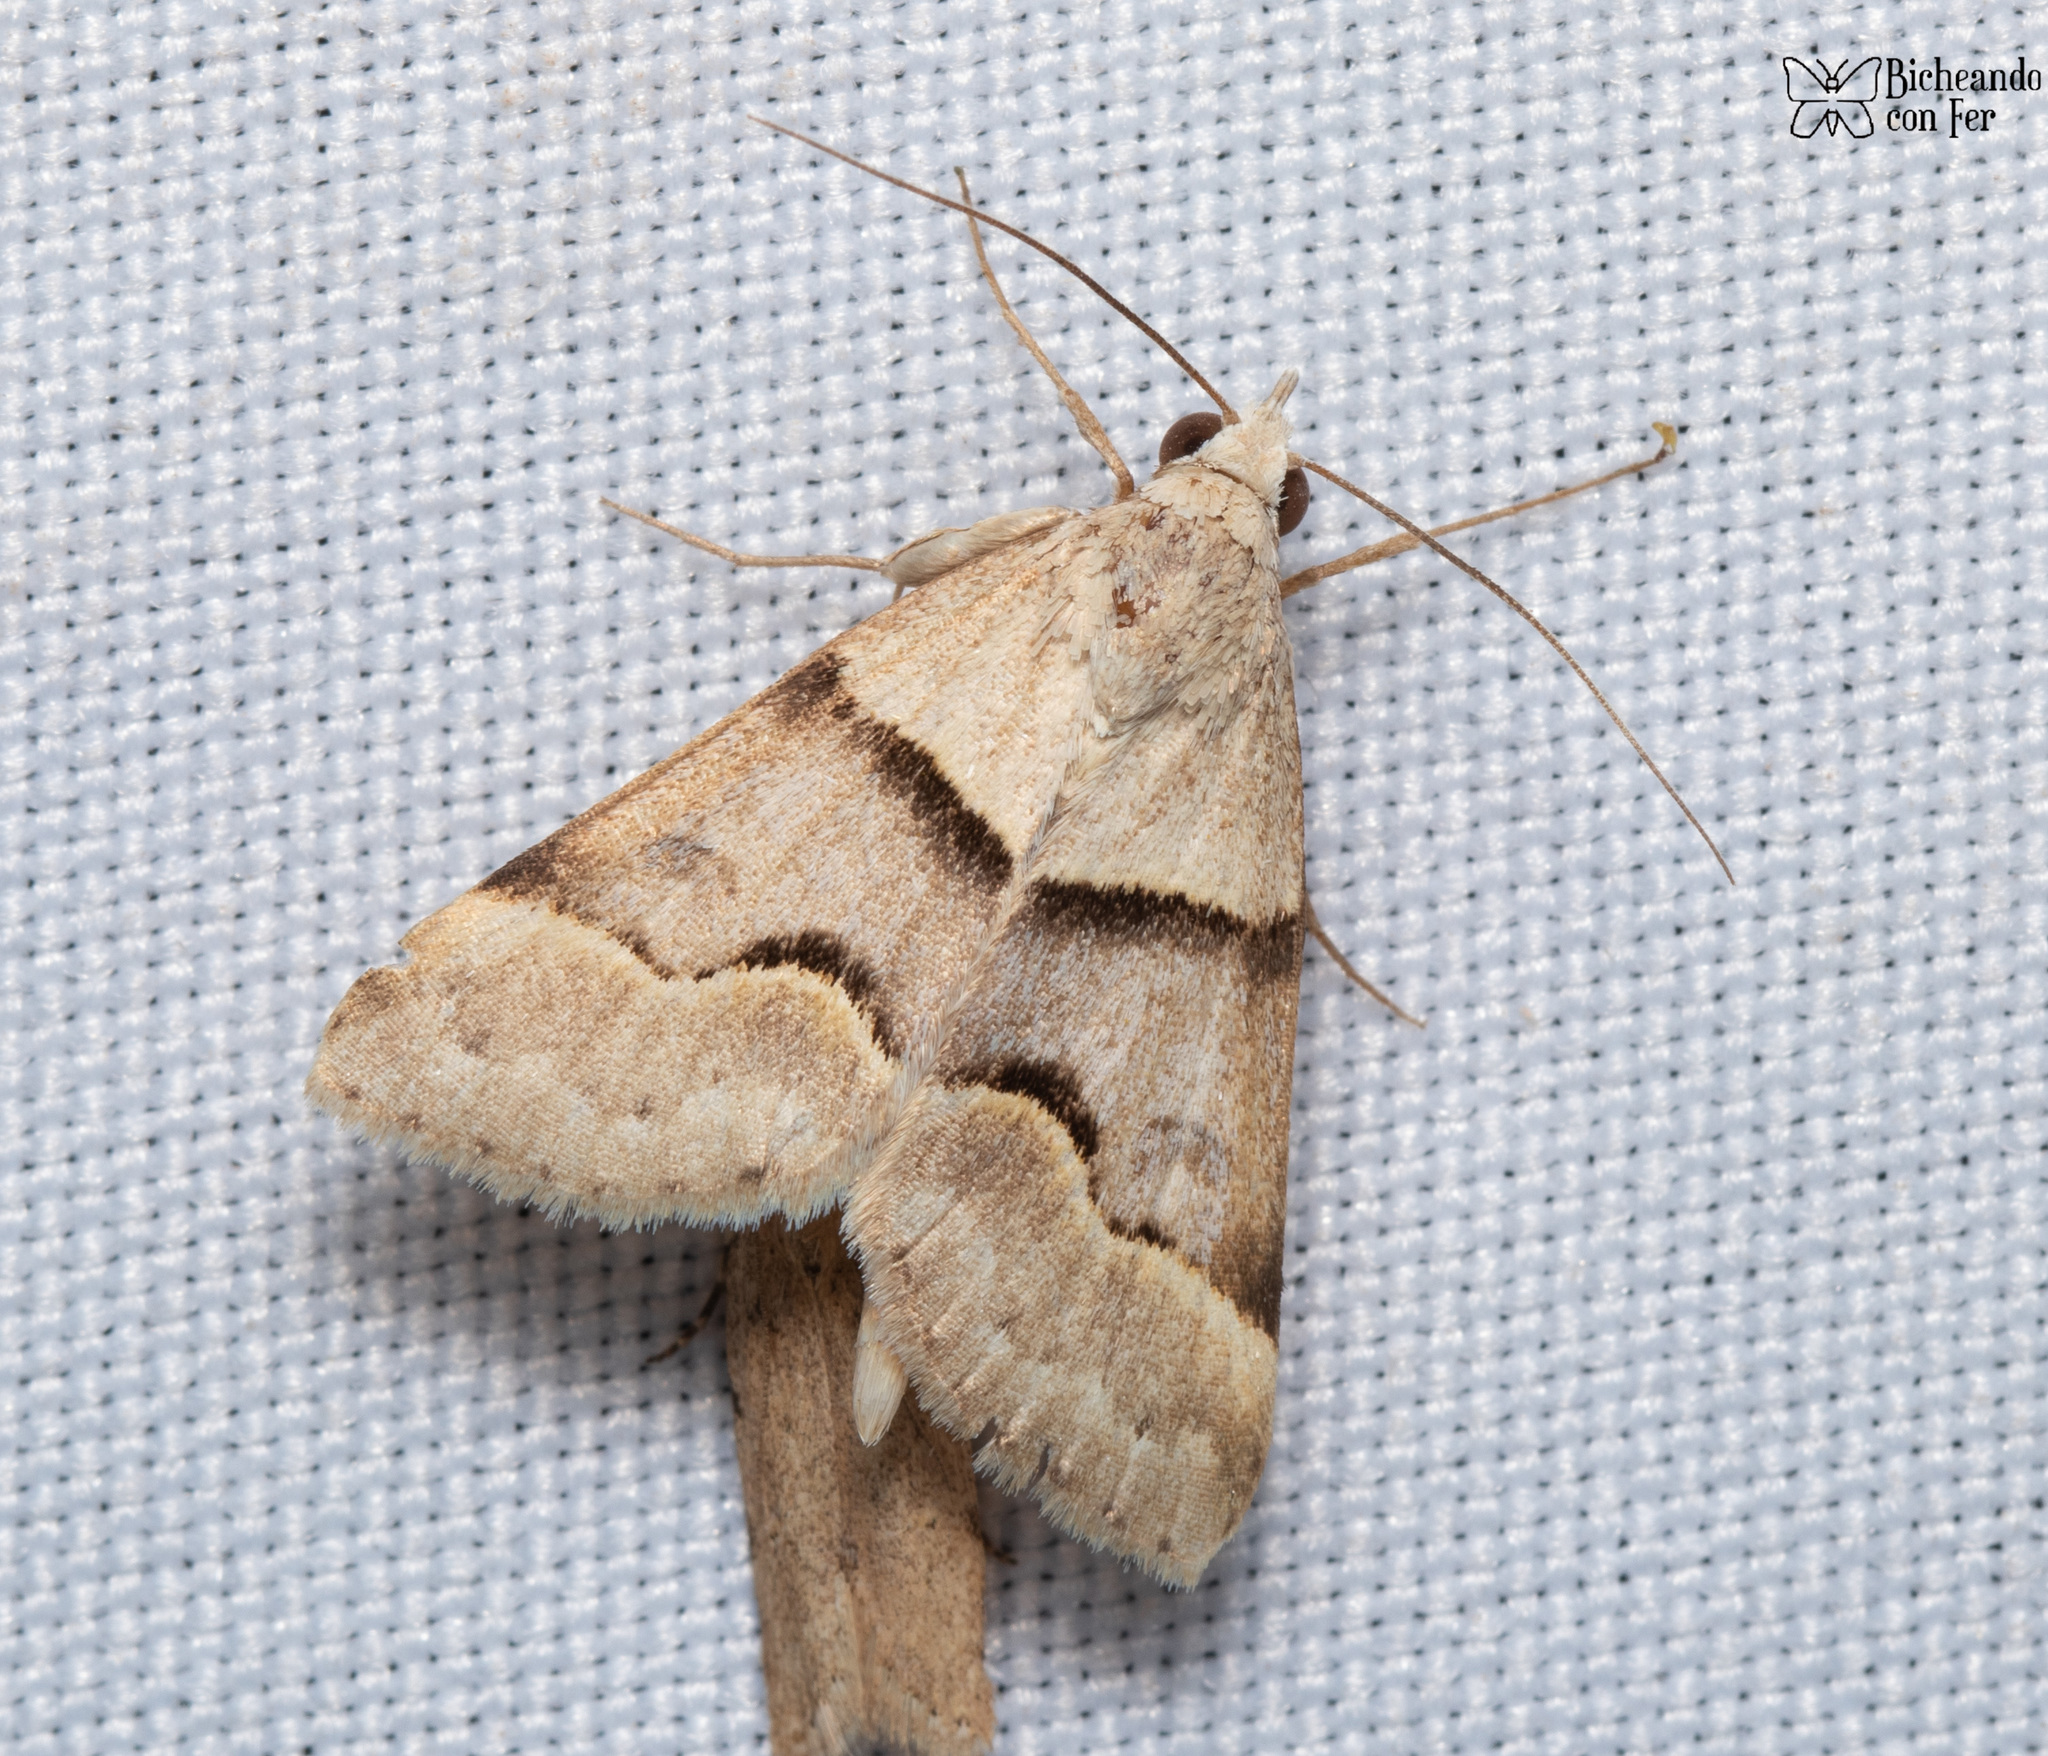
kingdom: Animalia
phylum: Arthropoda
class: Insecta
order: Lepidoptera
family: Erebidae
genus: Hemeroplanis
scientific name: Hemeroplanis incusalis
